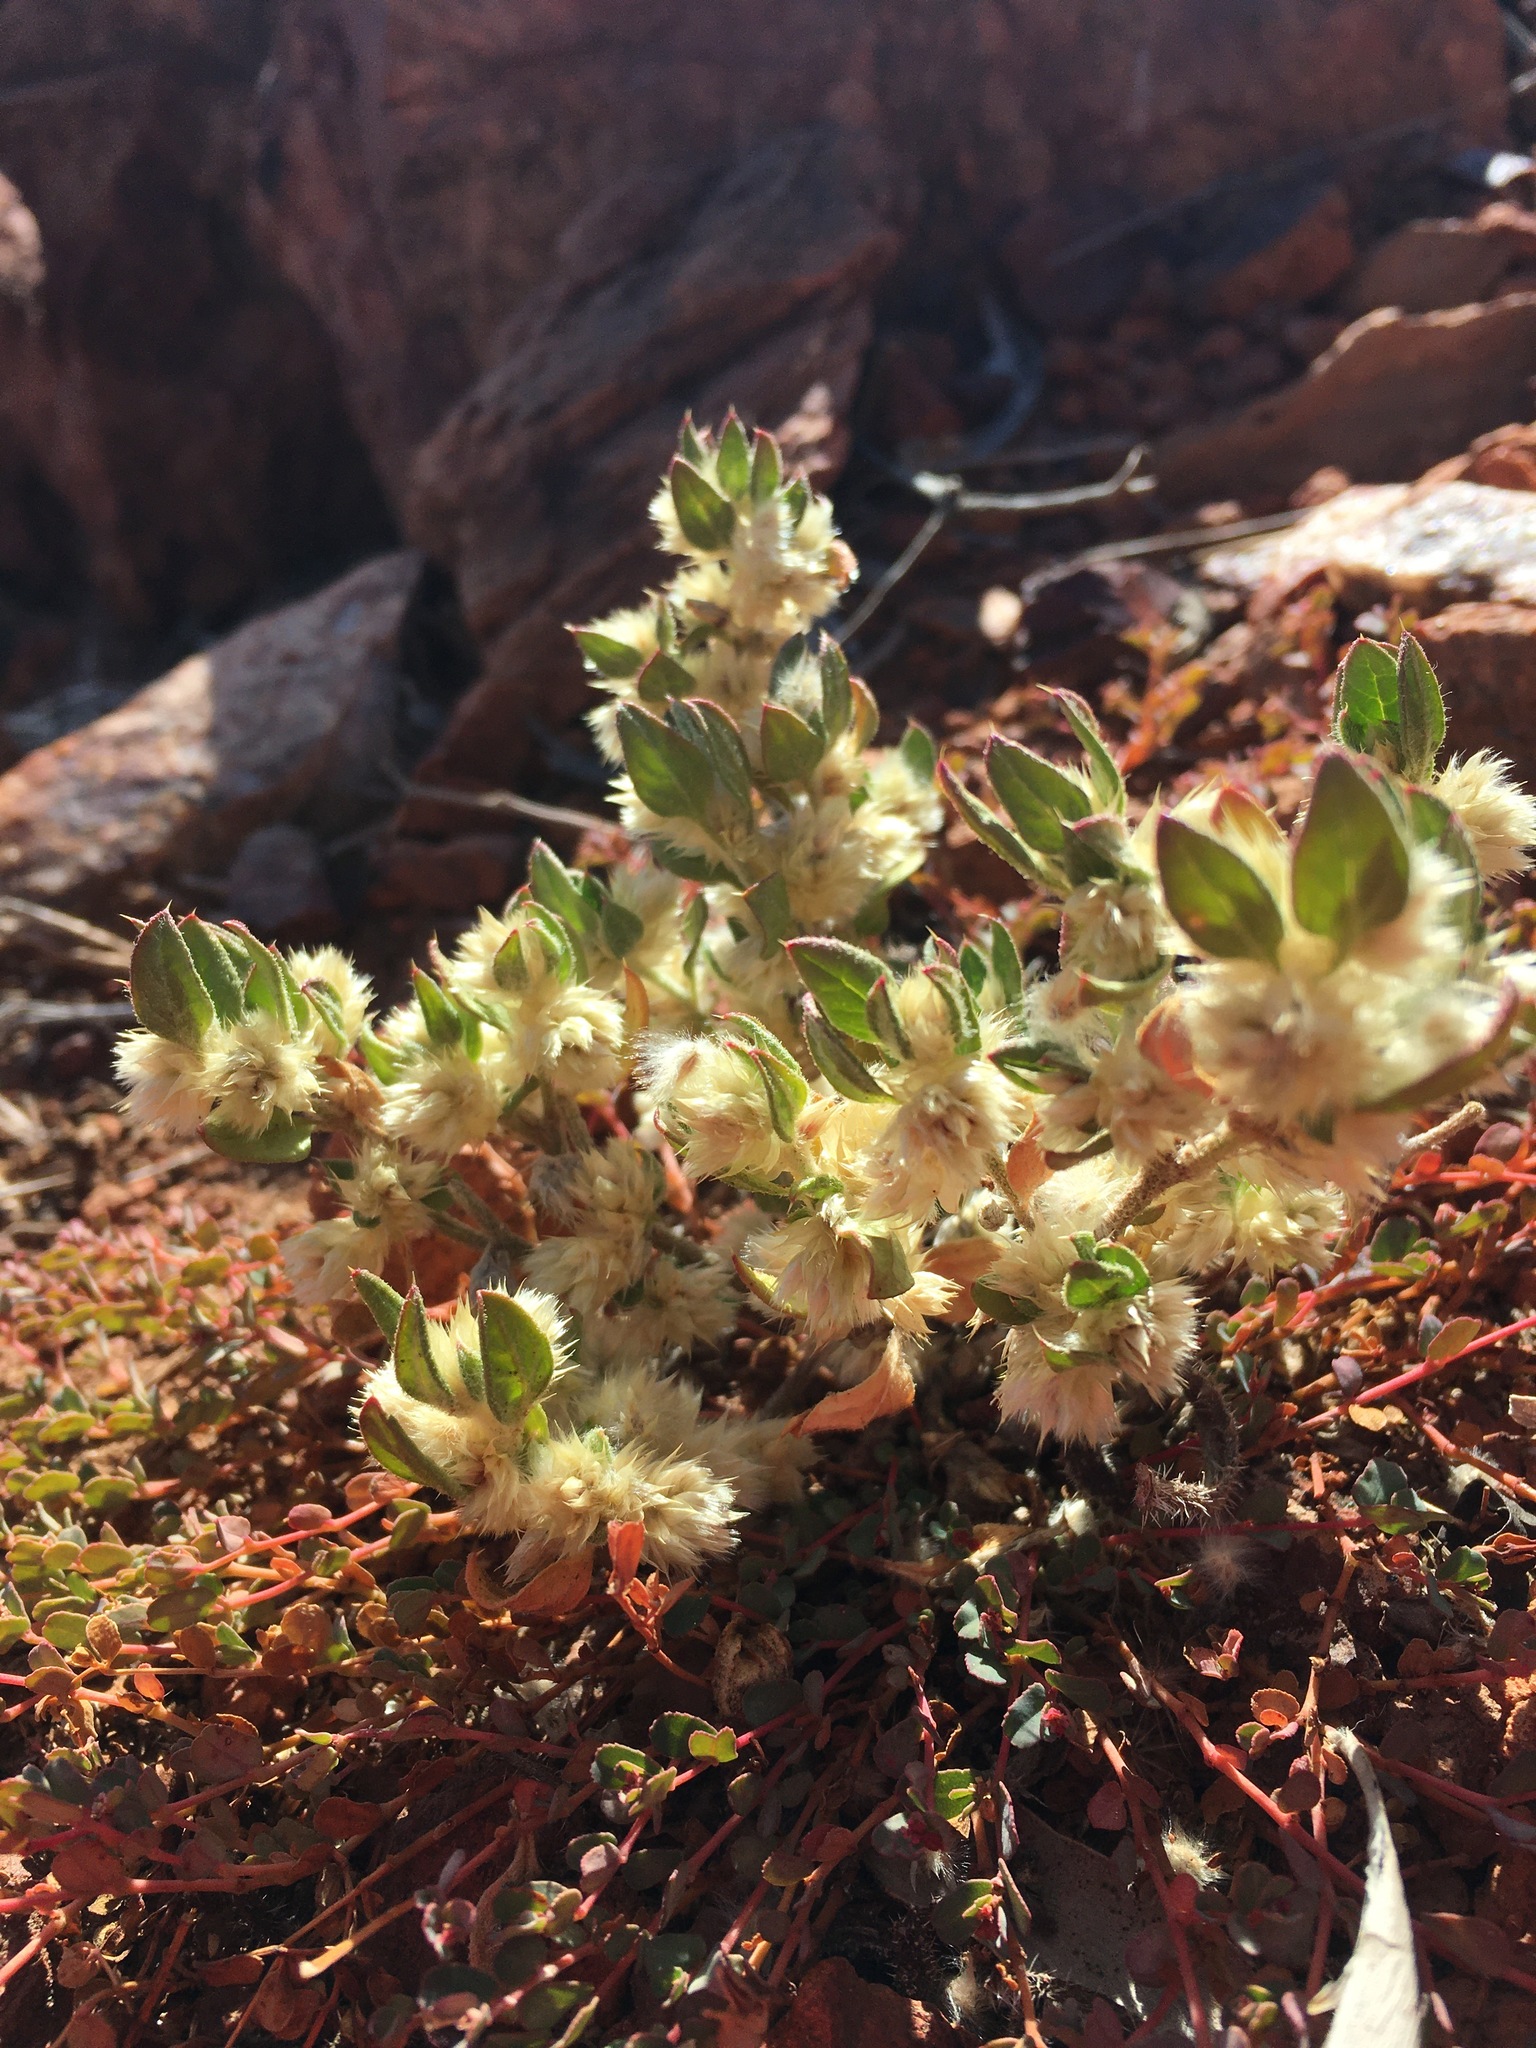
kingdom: Plantae
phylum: Tracheophyta
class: Magnoliopsida
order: Caryophyllales
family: Amaranthaceae
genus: Ptilotus
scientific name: Ptilotus decipiens
